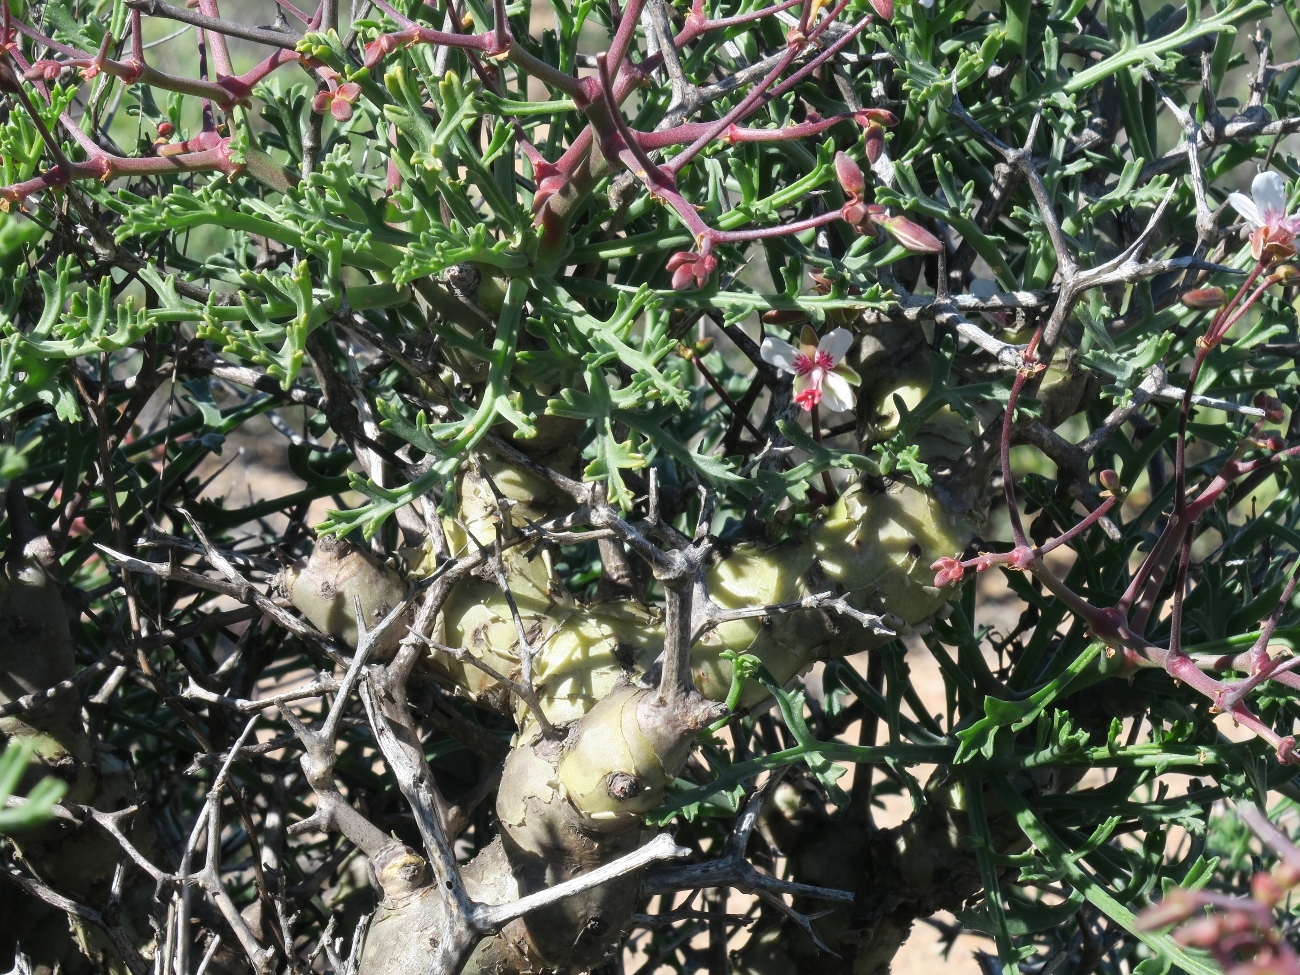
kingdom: Plantae
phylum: Tracheophyta
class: Magnoliopsida
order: Geraniales
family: Geraniaceae
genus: Pelargonium
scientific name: Pelargonium crithmifolium
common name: Samphire-leaf pelargonium
